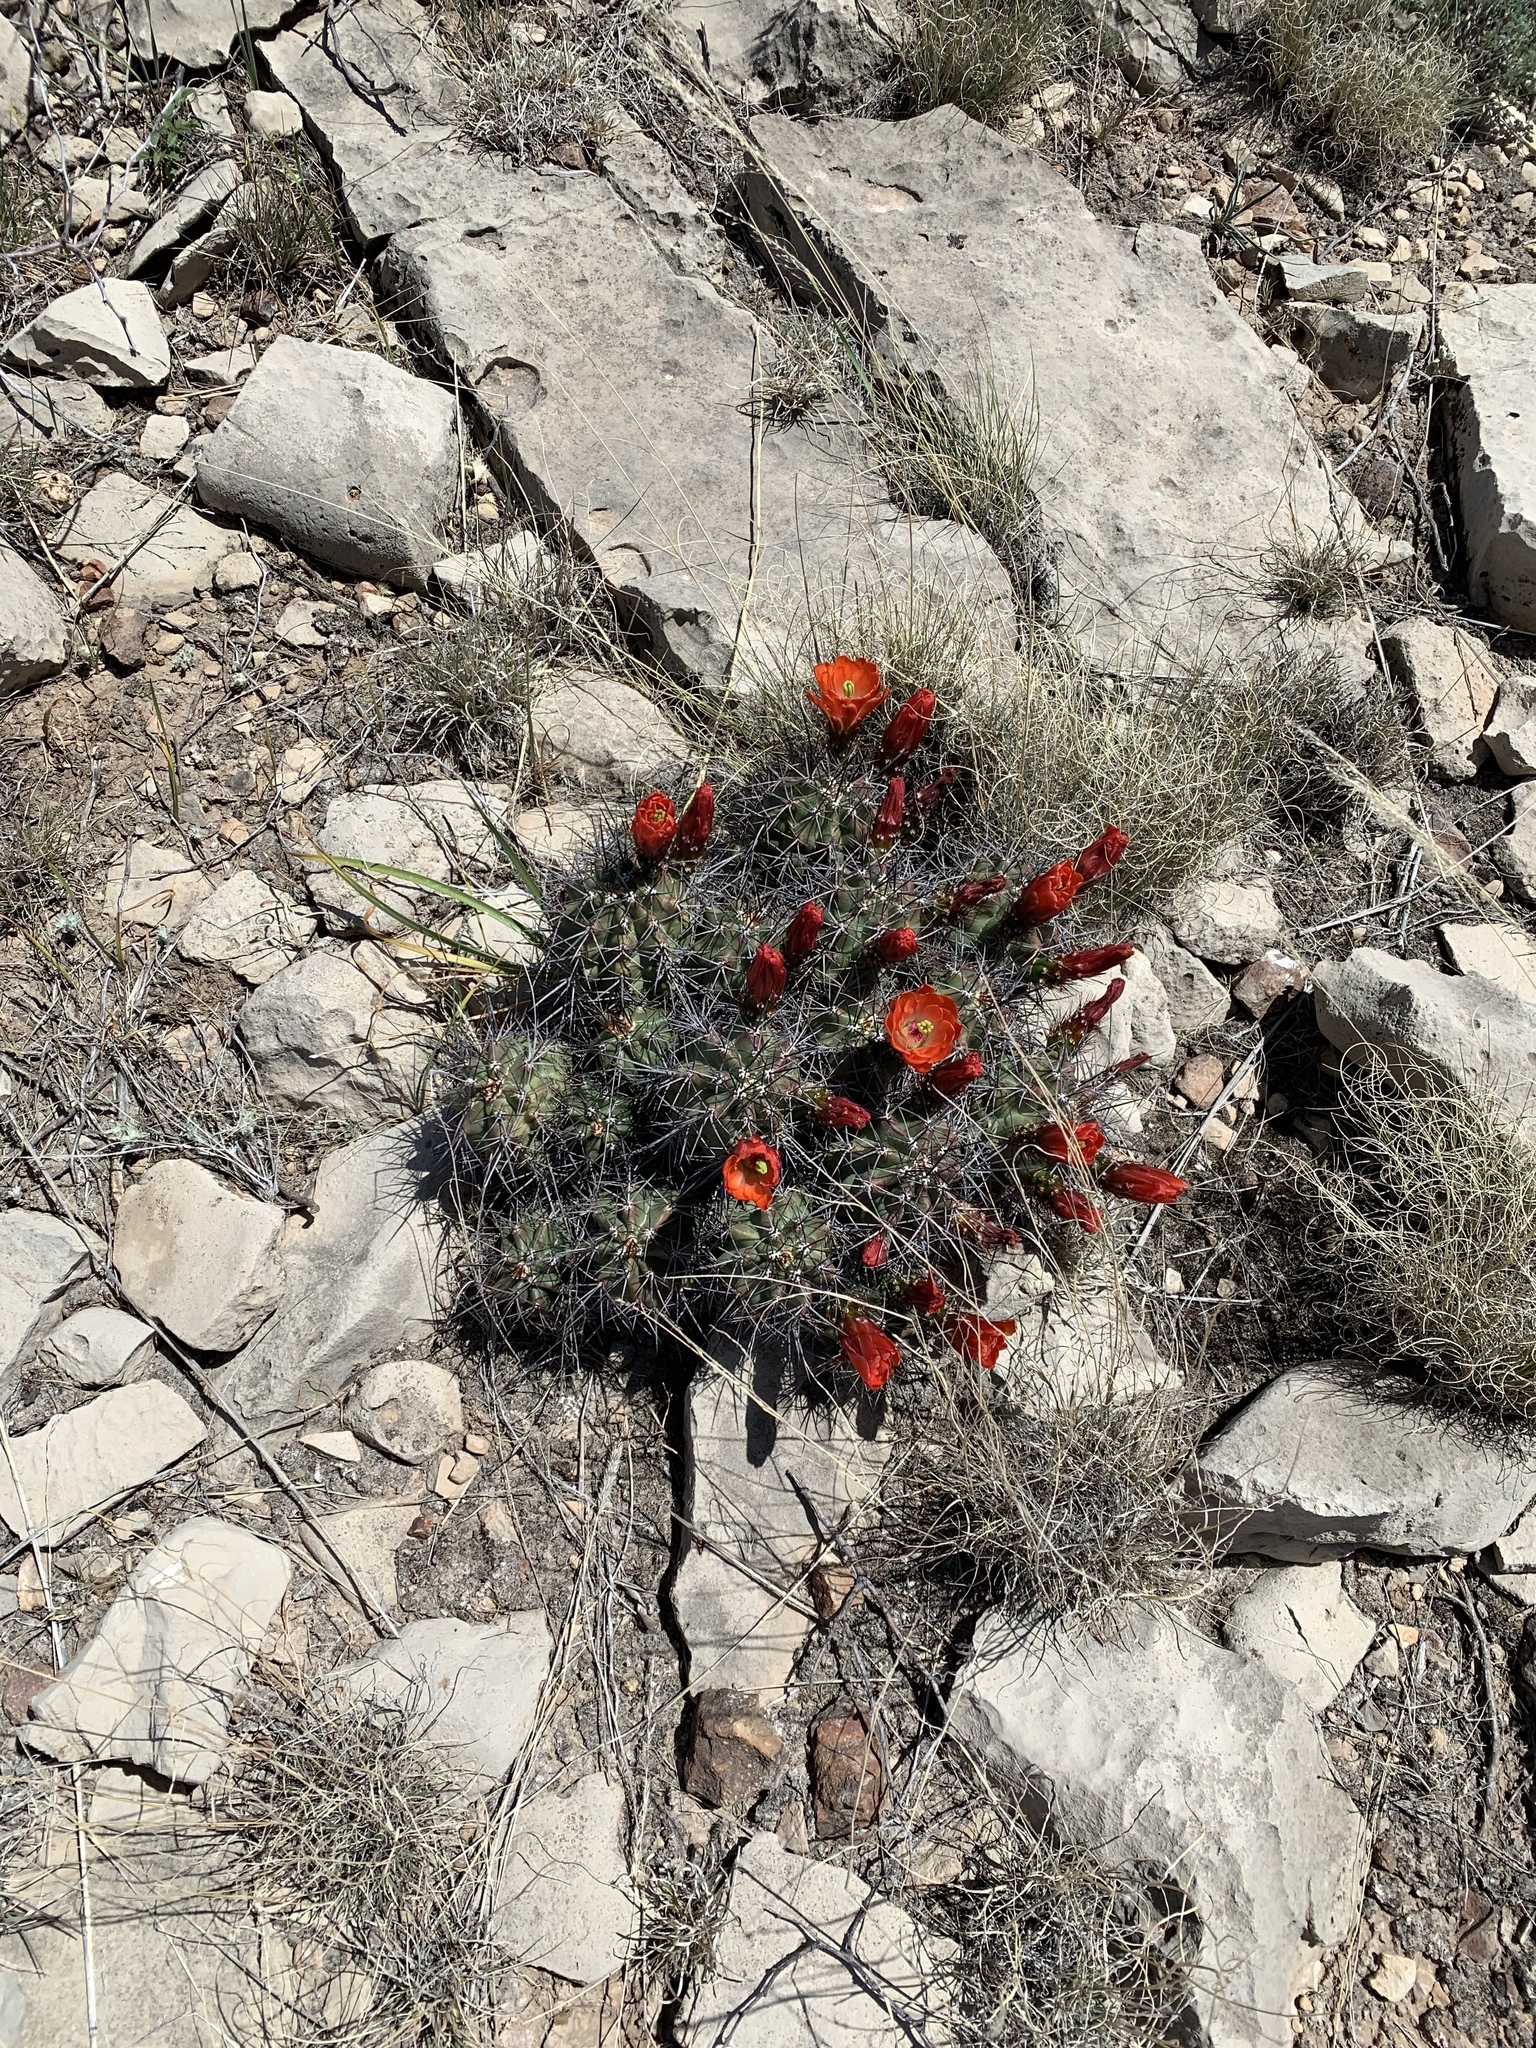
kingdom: Plantae
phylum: Tracheophyta
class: Magnoliopsida
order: Caryophyllales
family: Cactaceae
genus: Echinocereus
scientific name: Echinocereus coccineus
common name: Scarlet hedgehog cactus
